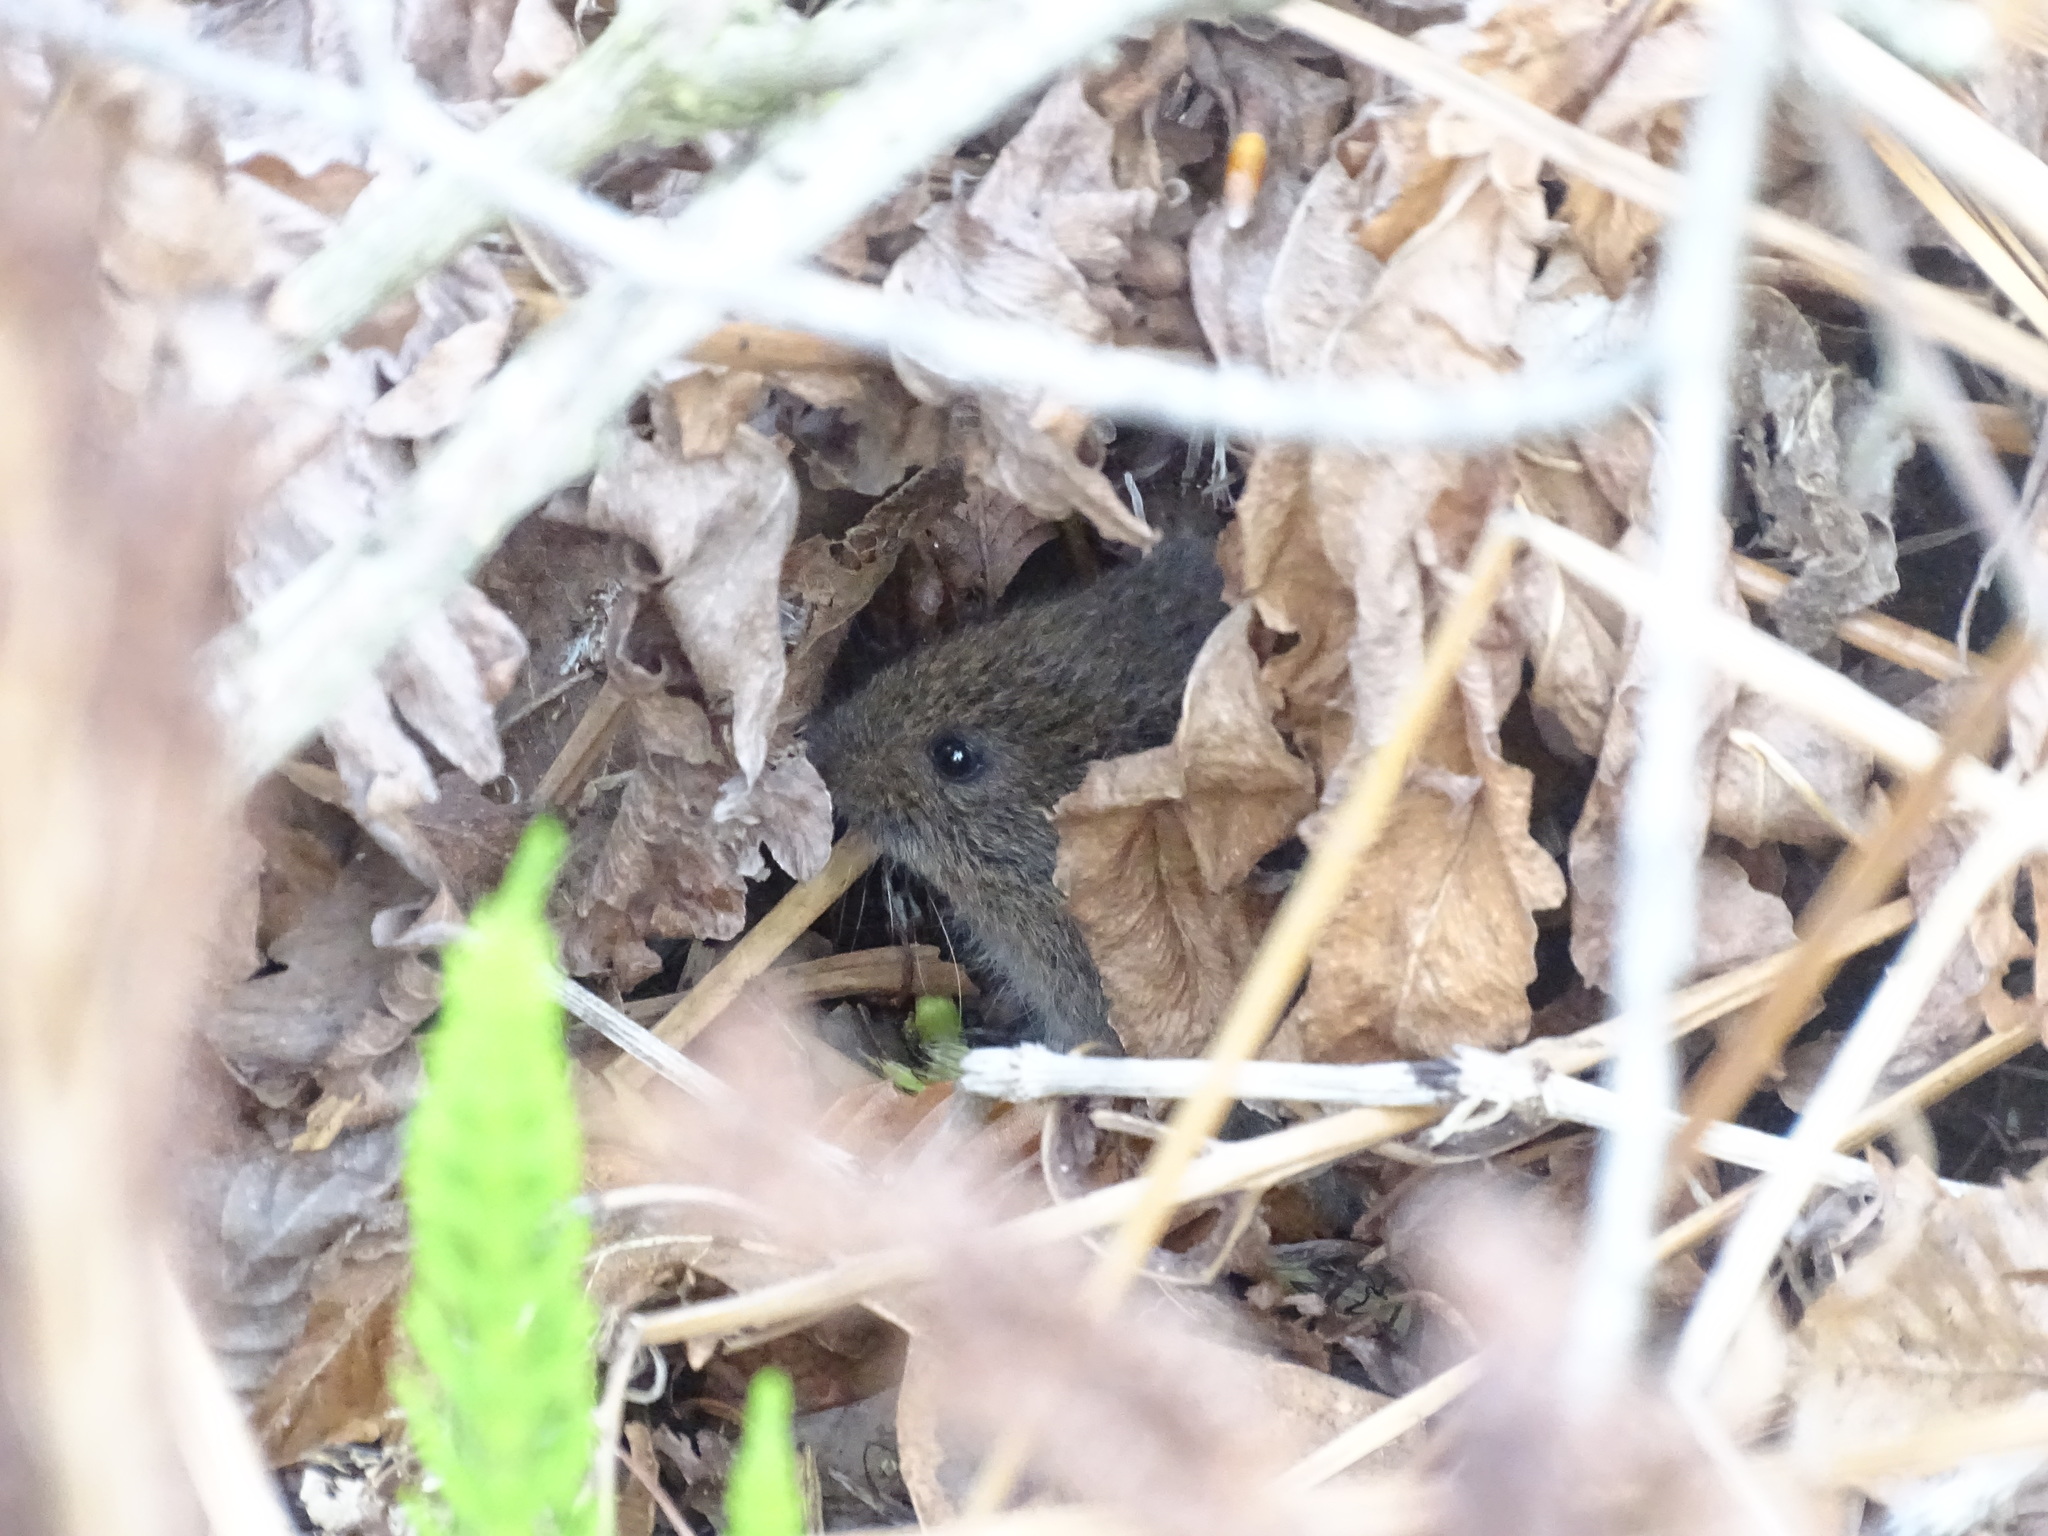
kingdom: Animalia
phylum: Chordata
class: Mammalia
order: Rodentia
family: Cricetidae
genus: Microtus
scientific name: Microtus pennsylvanicus
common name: Meadow vole
